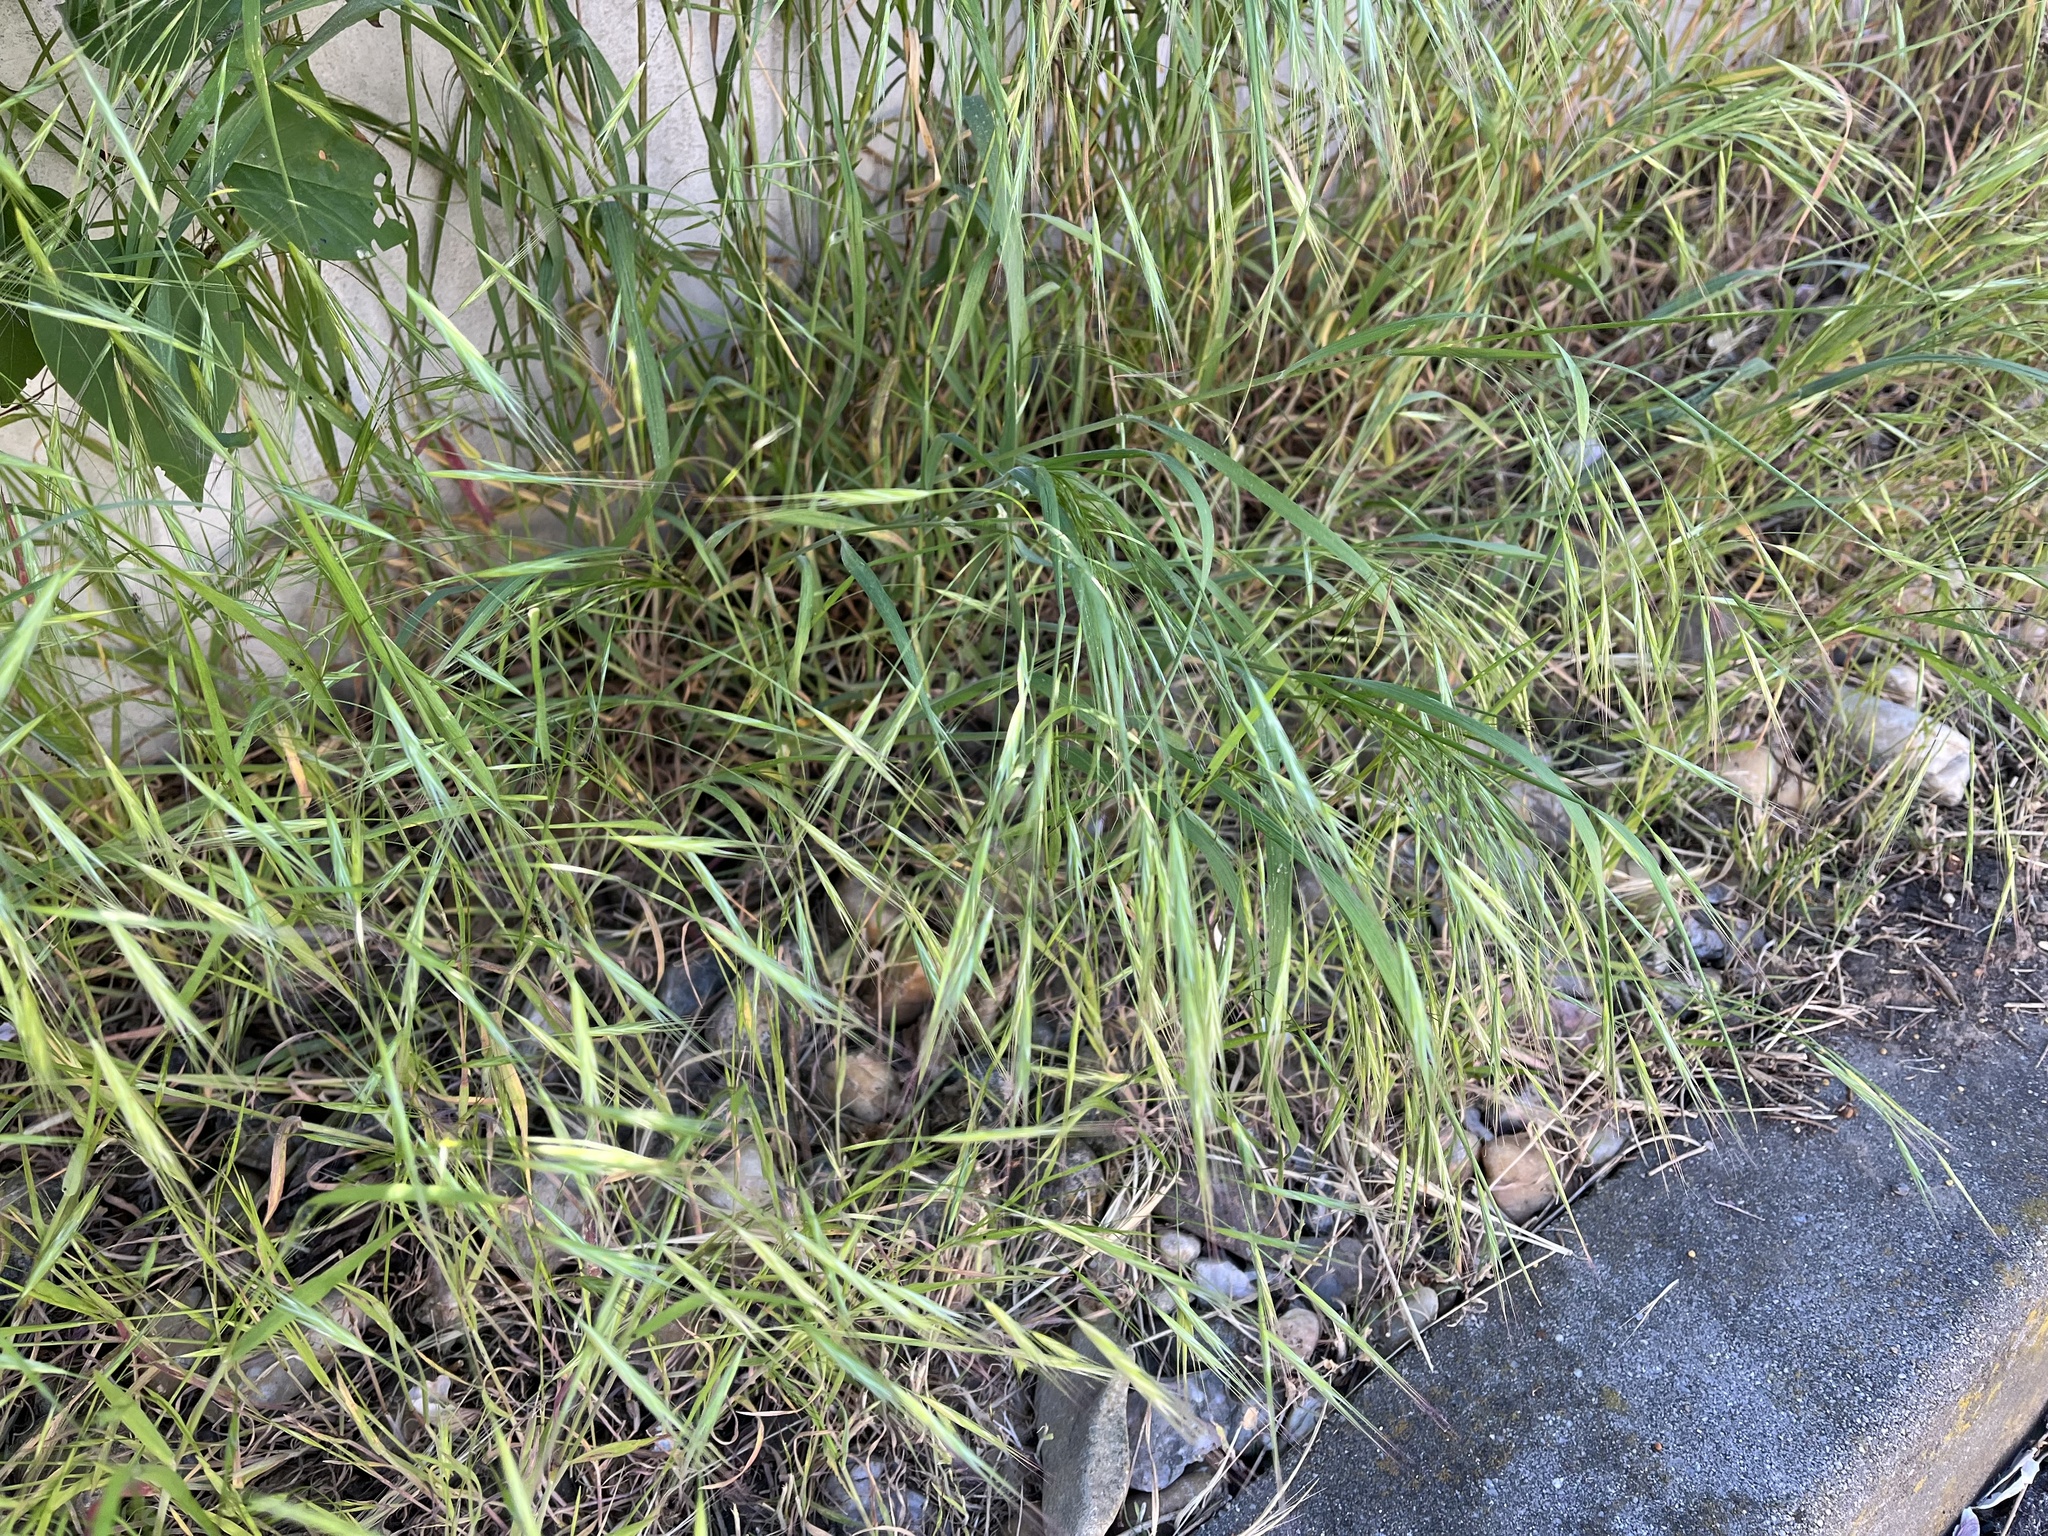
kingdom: Plantae
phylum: Tracheophyta
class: Liliopsida
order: Poales
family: Poaceae
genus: Bromus
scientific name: Bromus sterilis
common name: Poverty brome
